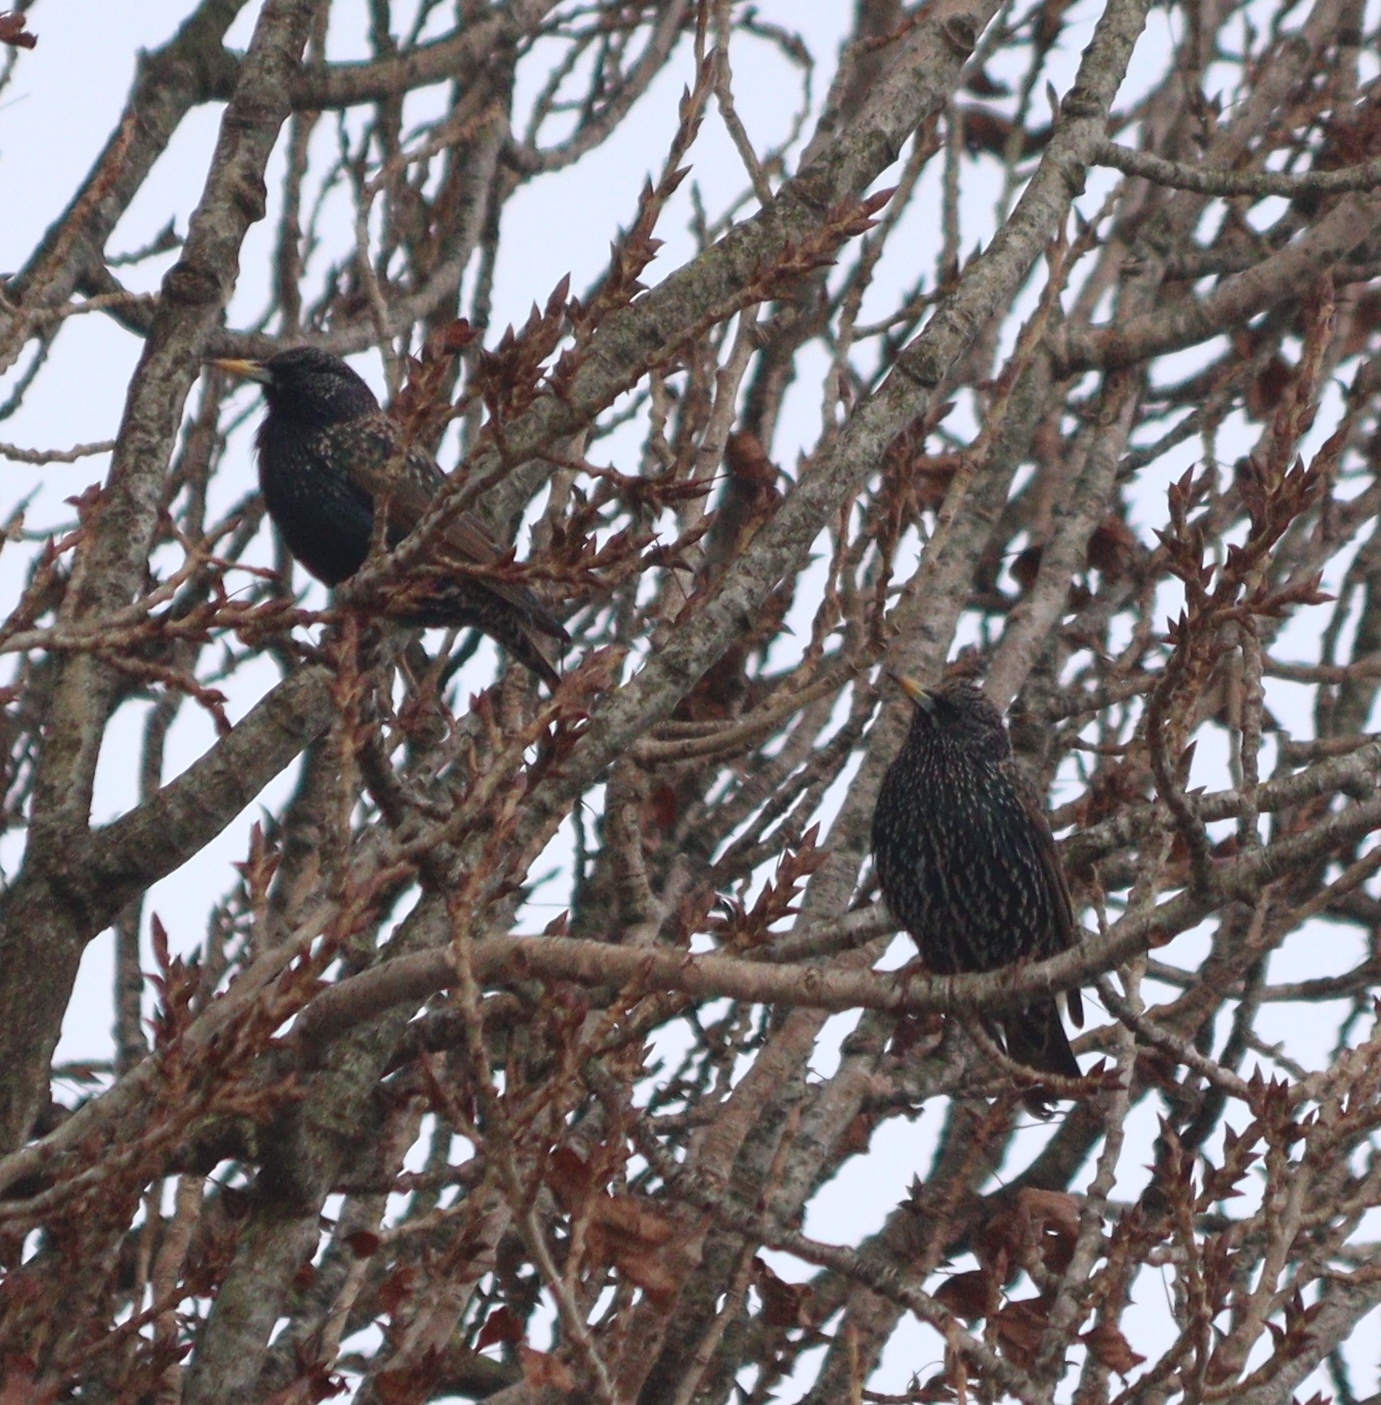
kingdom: Animalia
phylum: Chordata
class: Aves
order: Passeriformes
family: Sturnidae
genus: Sturnus
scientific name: Sturnus vulgaris
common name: Common starling
